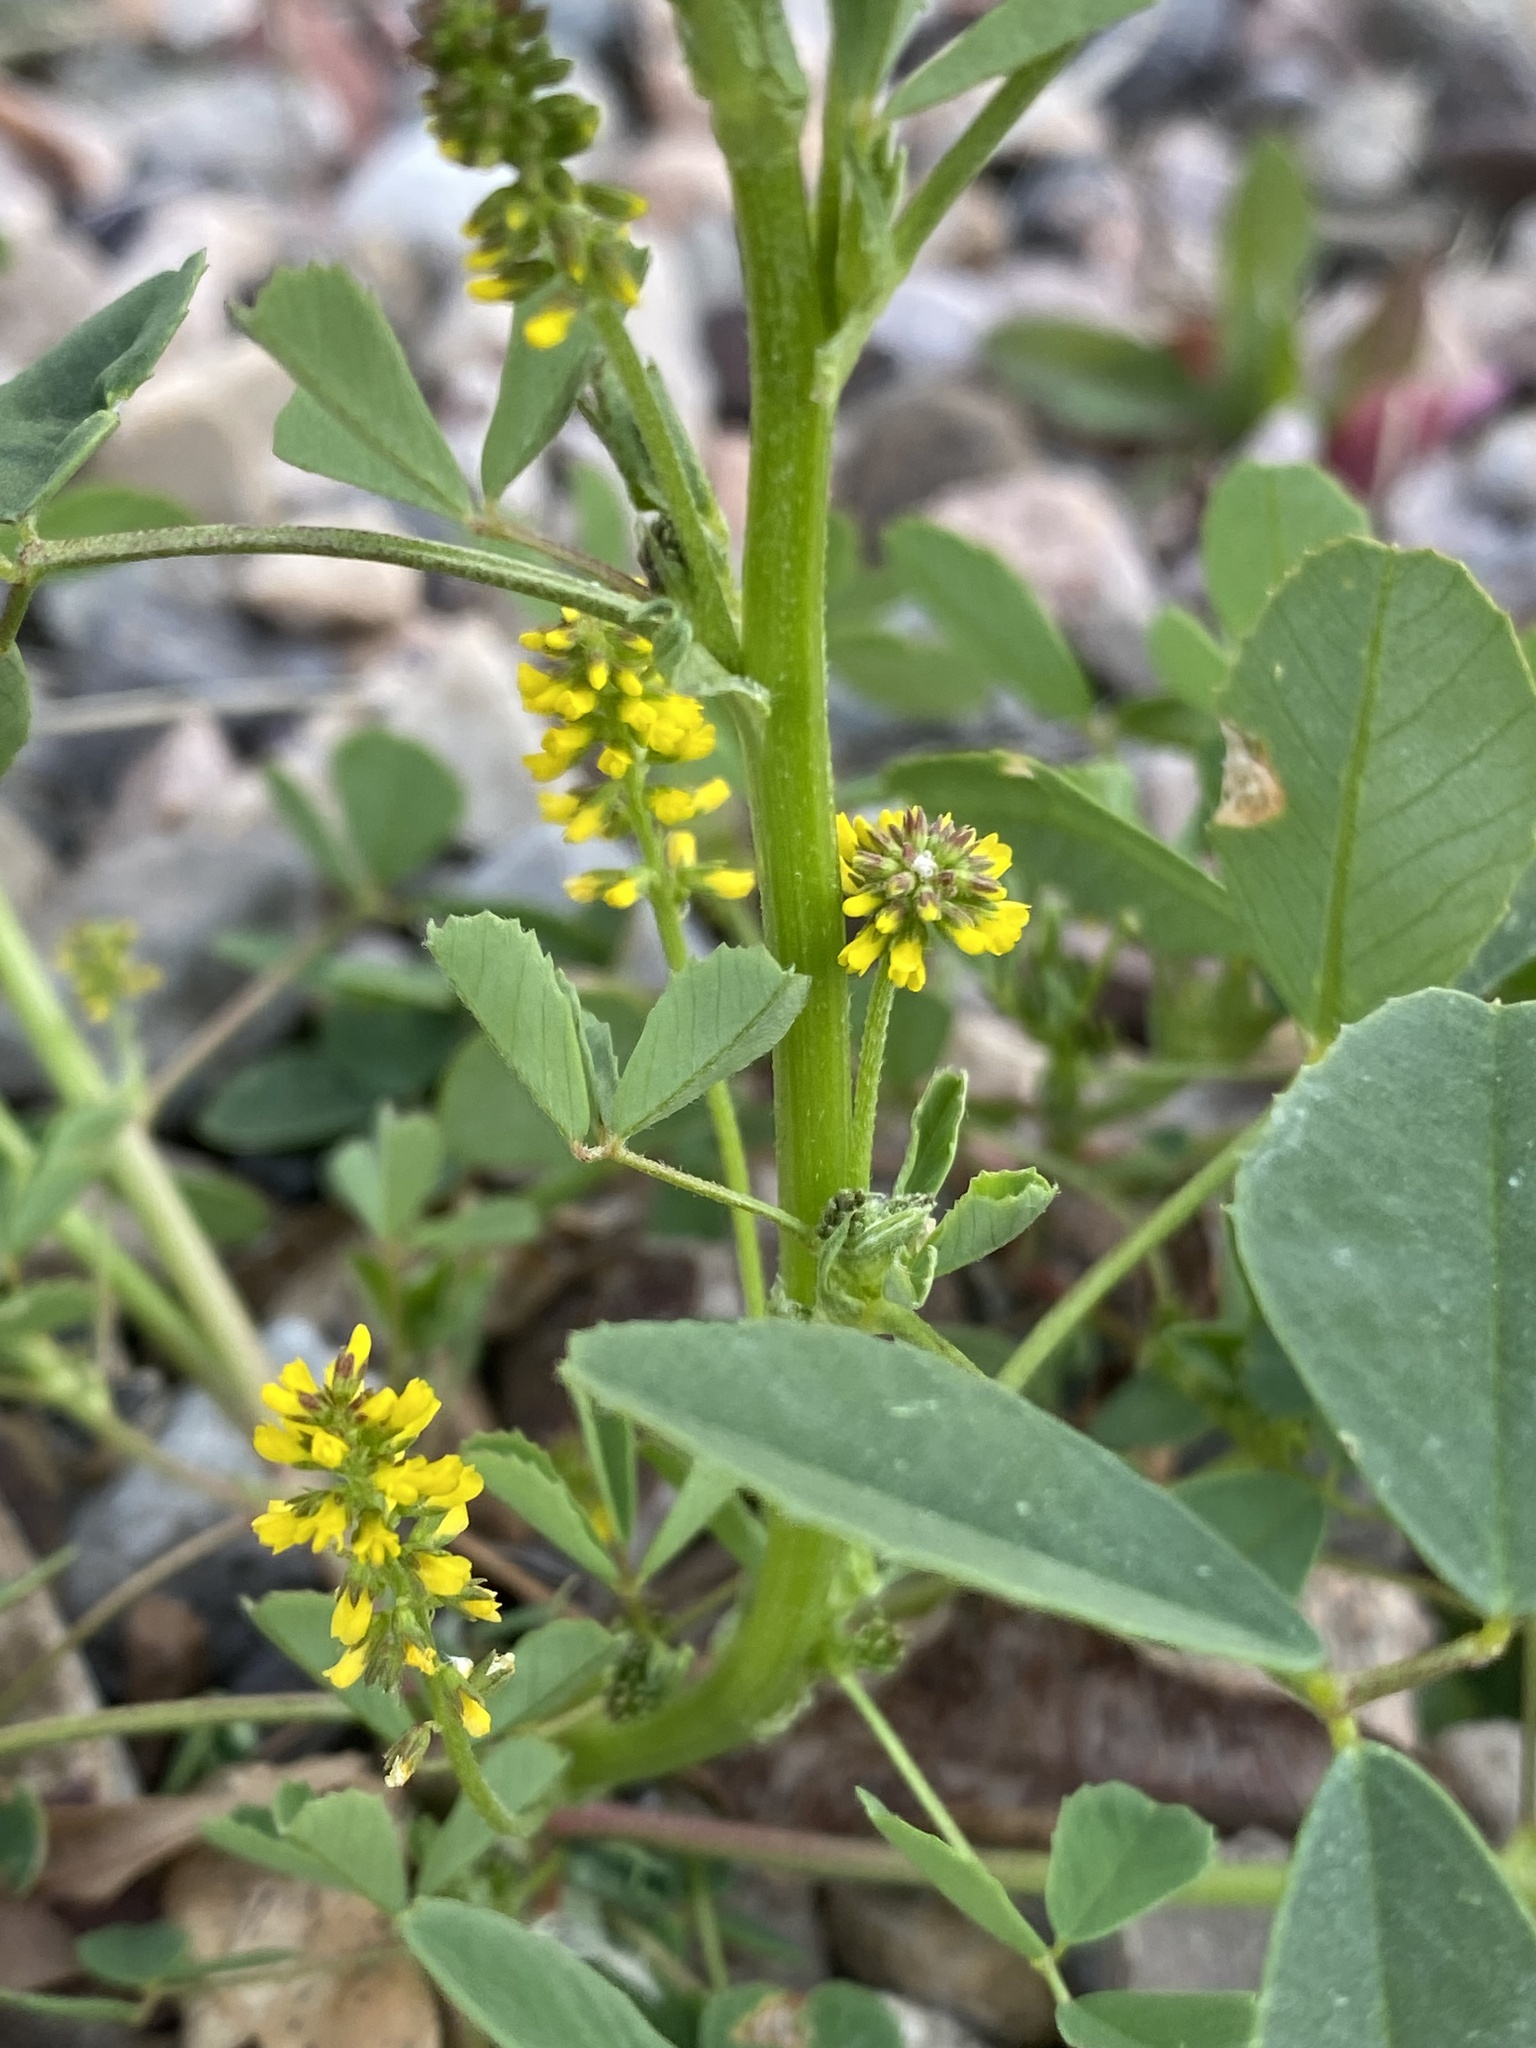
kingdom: Plantae
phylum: Tracheophyta
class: Magnoliopsida
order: Fabales
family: Fabaceae
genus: Melilotus
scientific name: Melilotus indicus
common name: Small melilot
